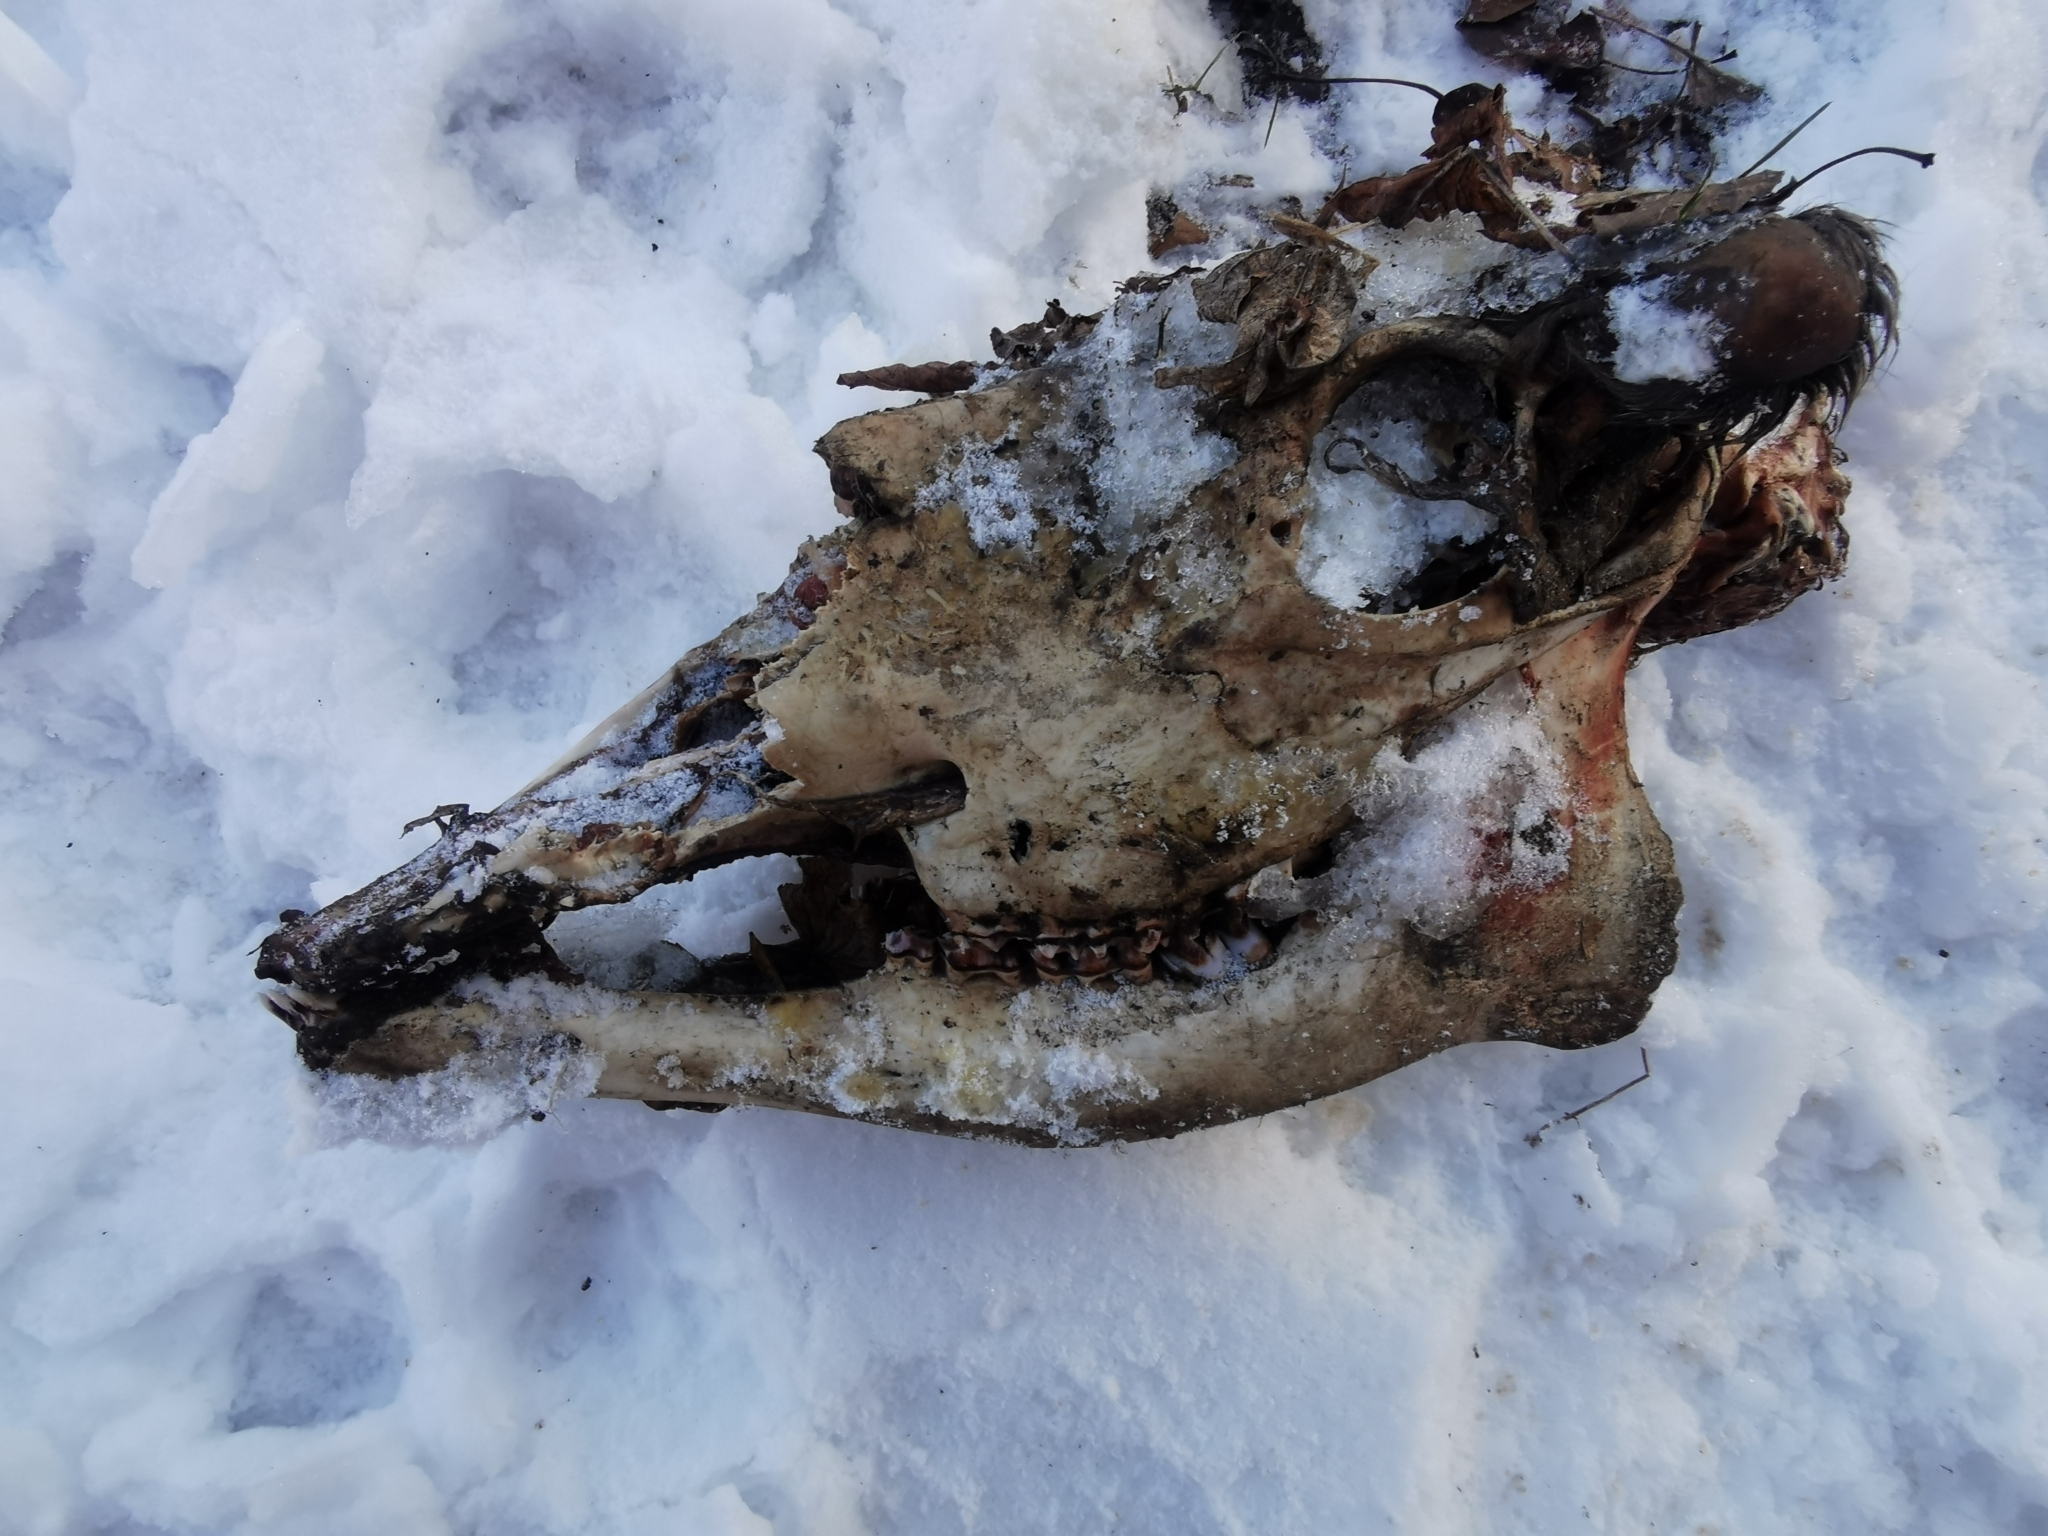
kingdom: Animalia
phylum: Chordata
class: Mammalia
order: Artiodactyla
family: Cervidae
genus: Alces
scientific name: Alces alces
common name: Moose
